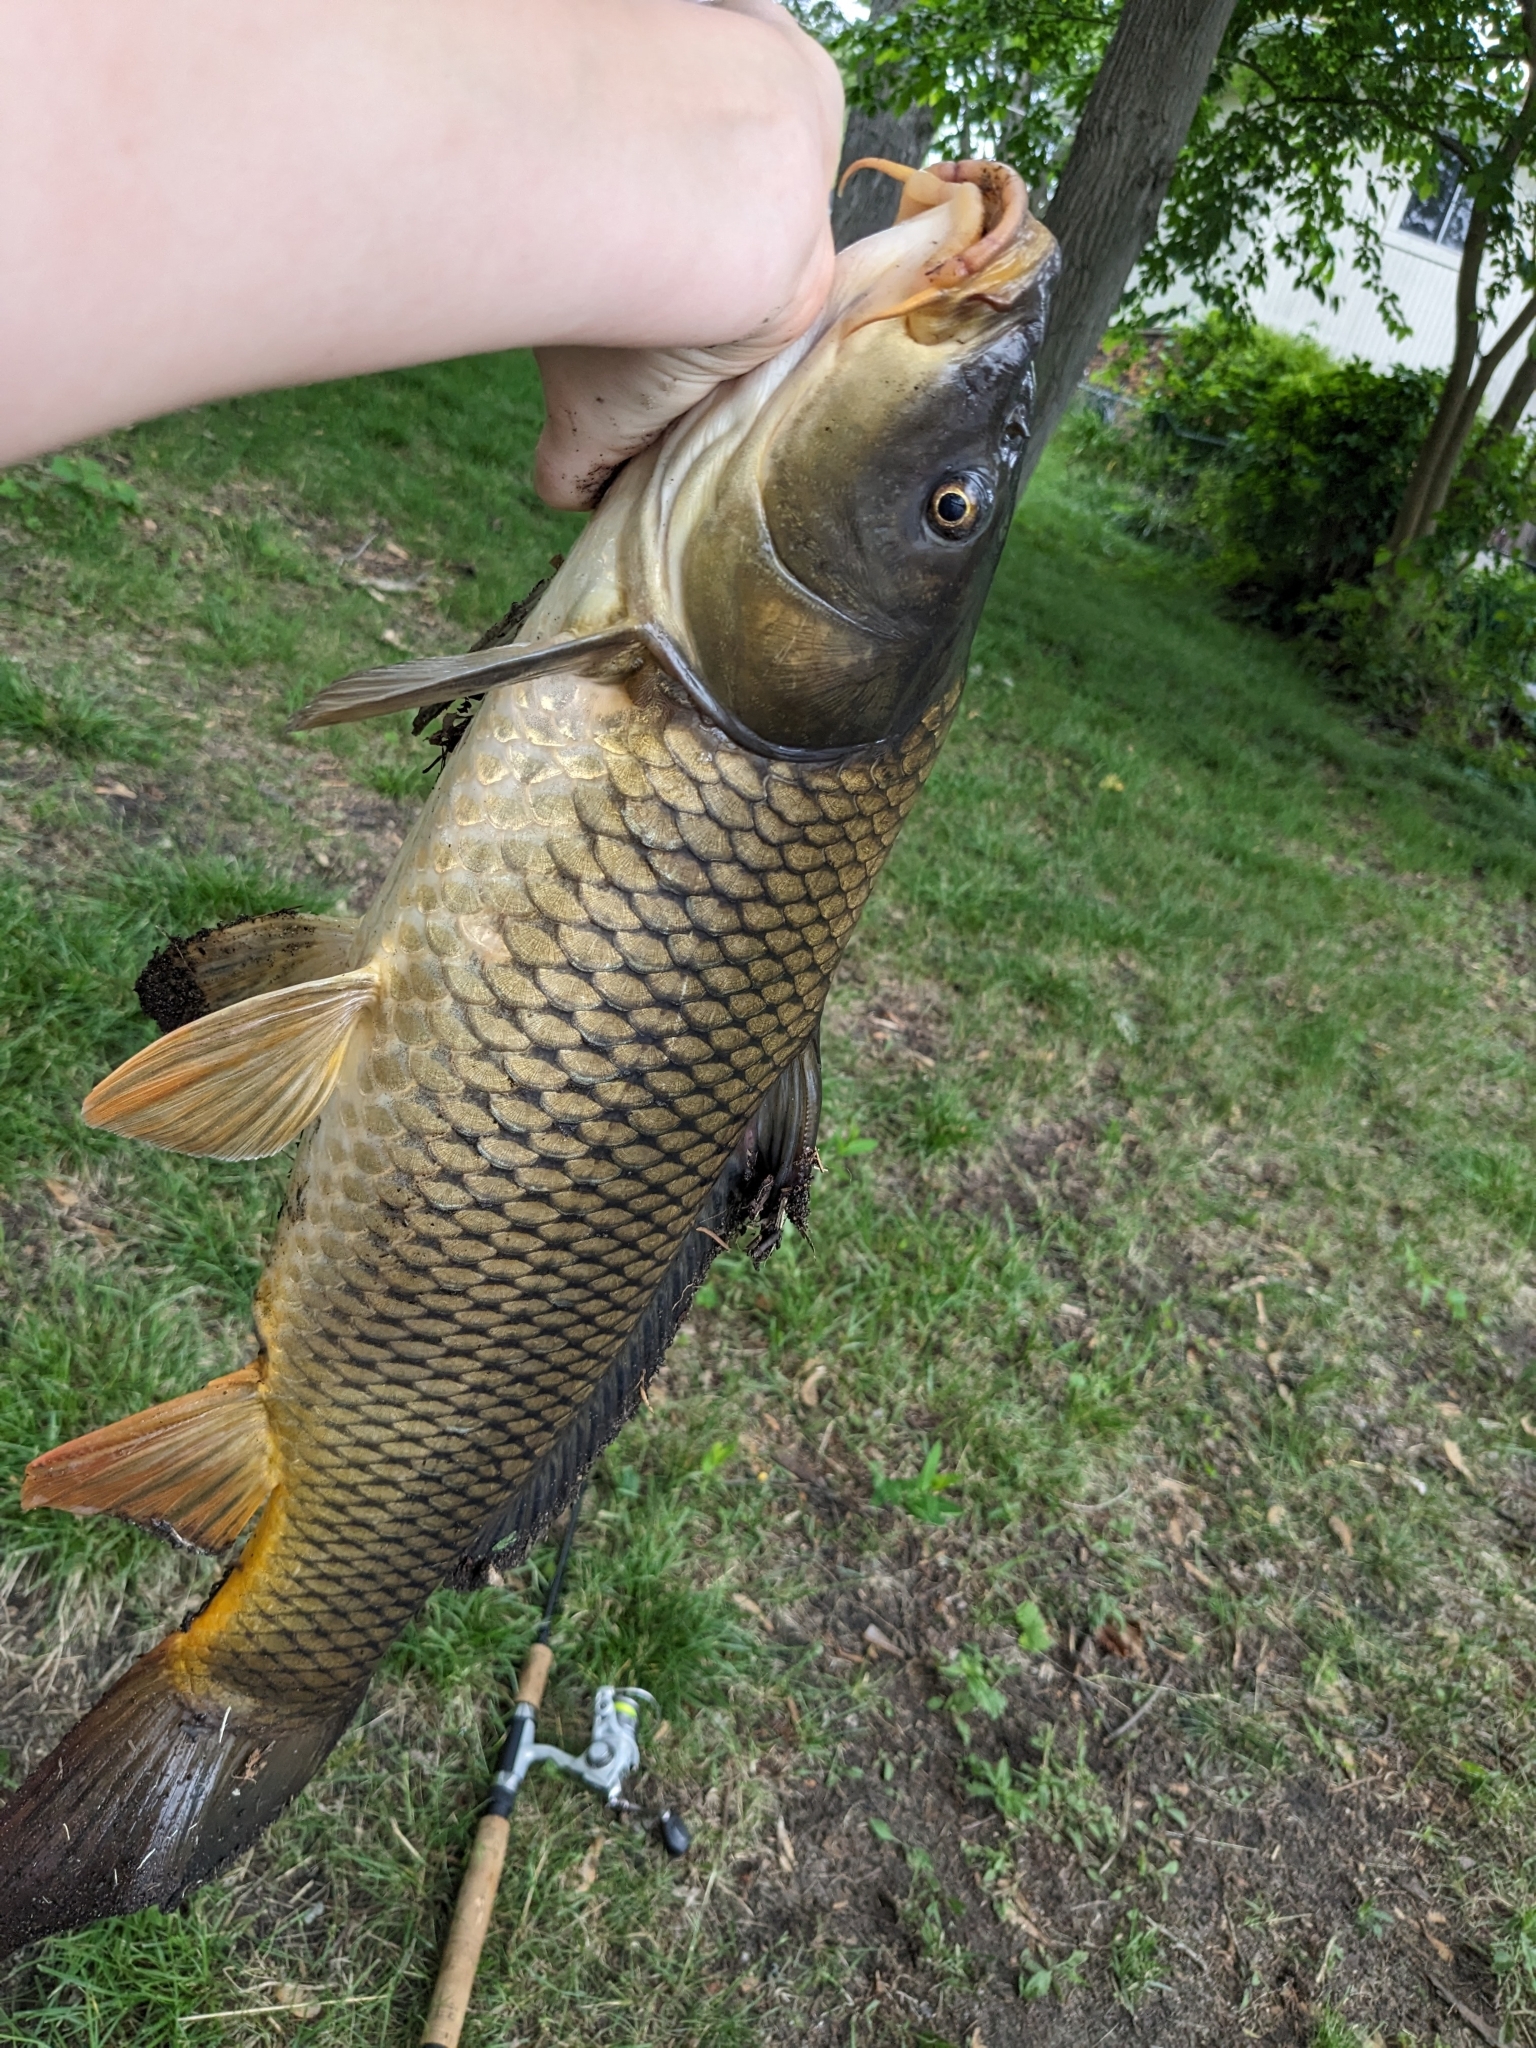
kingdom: Animalia
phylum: Chordata
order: Cypriniformes
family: Cyprinidae
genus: Cyprinus
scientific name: Cyprinus carpio
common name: Common carp
